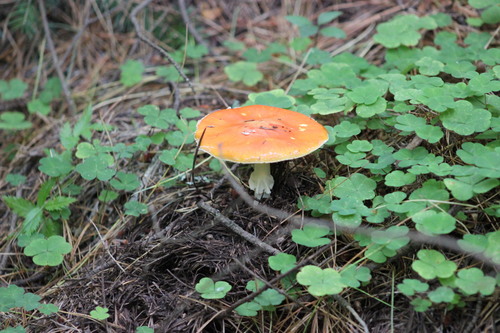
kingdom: Fungi
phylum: Basidiomycota
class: Agaricomycetes
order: Agaricales
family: Amanitaceae
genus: Amanita
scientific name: Amanita muscaria
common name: Fly agaric
